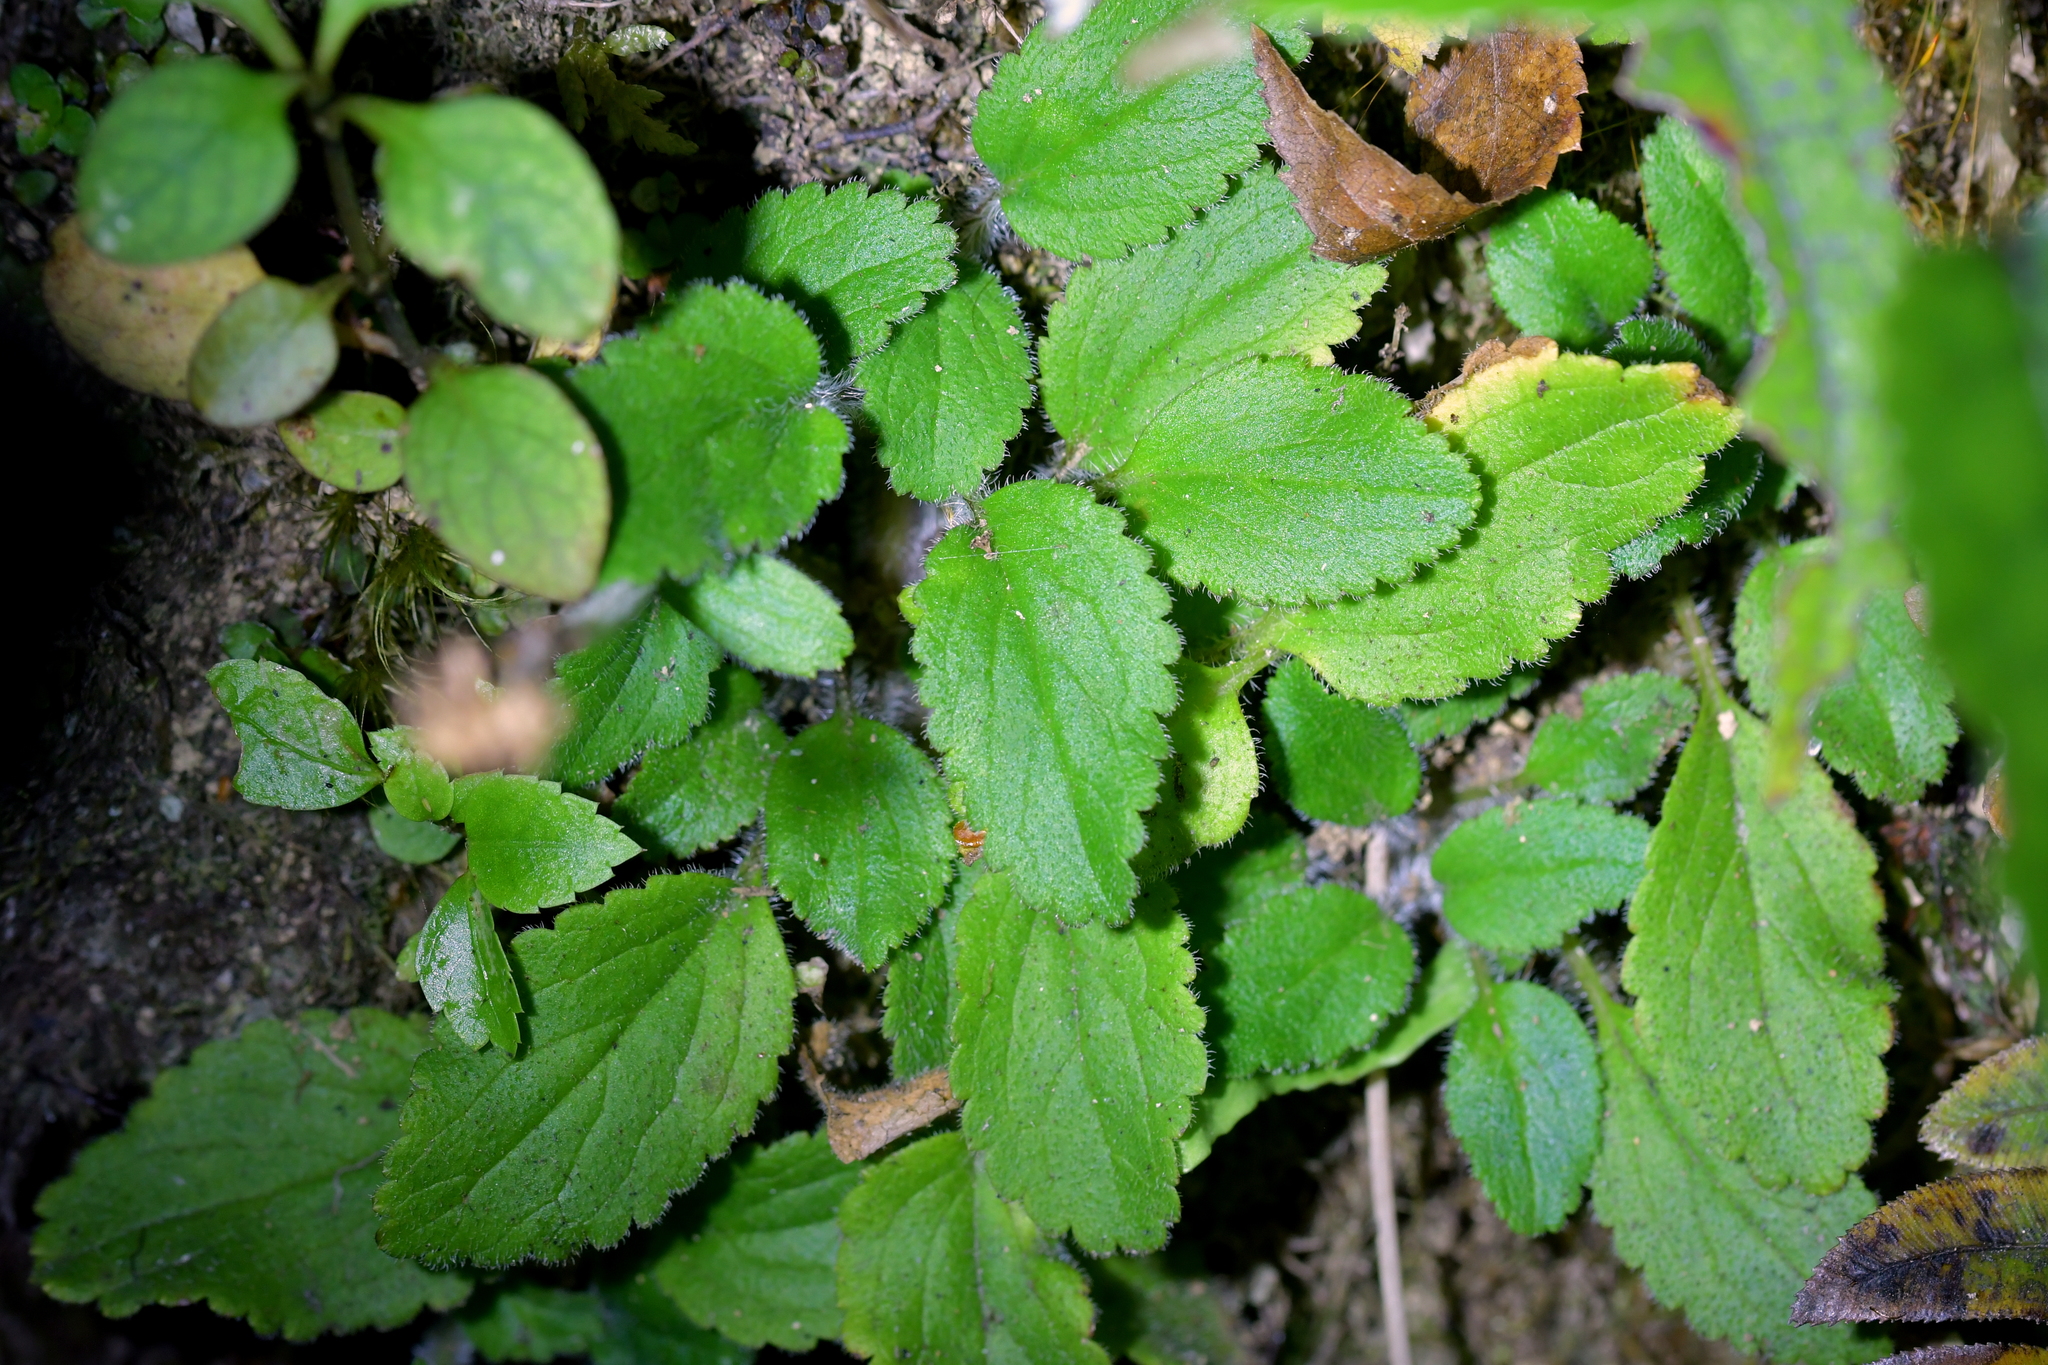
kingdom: Plantae
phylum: Tracheophyta
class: Magnoliopsida
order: Lamiales
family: Plantaginaceae
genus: Ourisia
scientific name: Ourisia macrophylla
